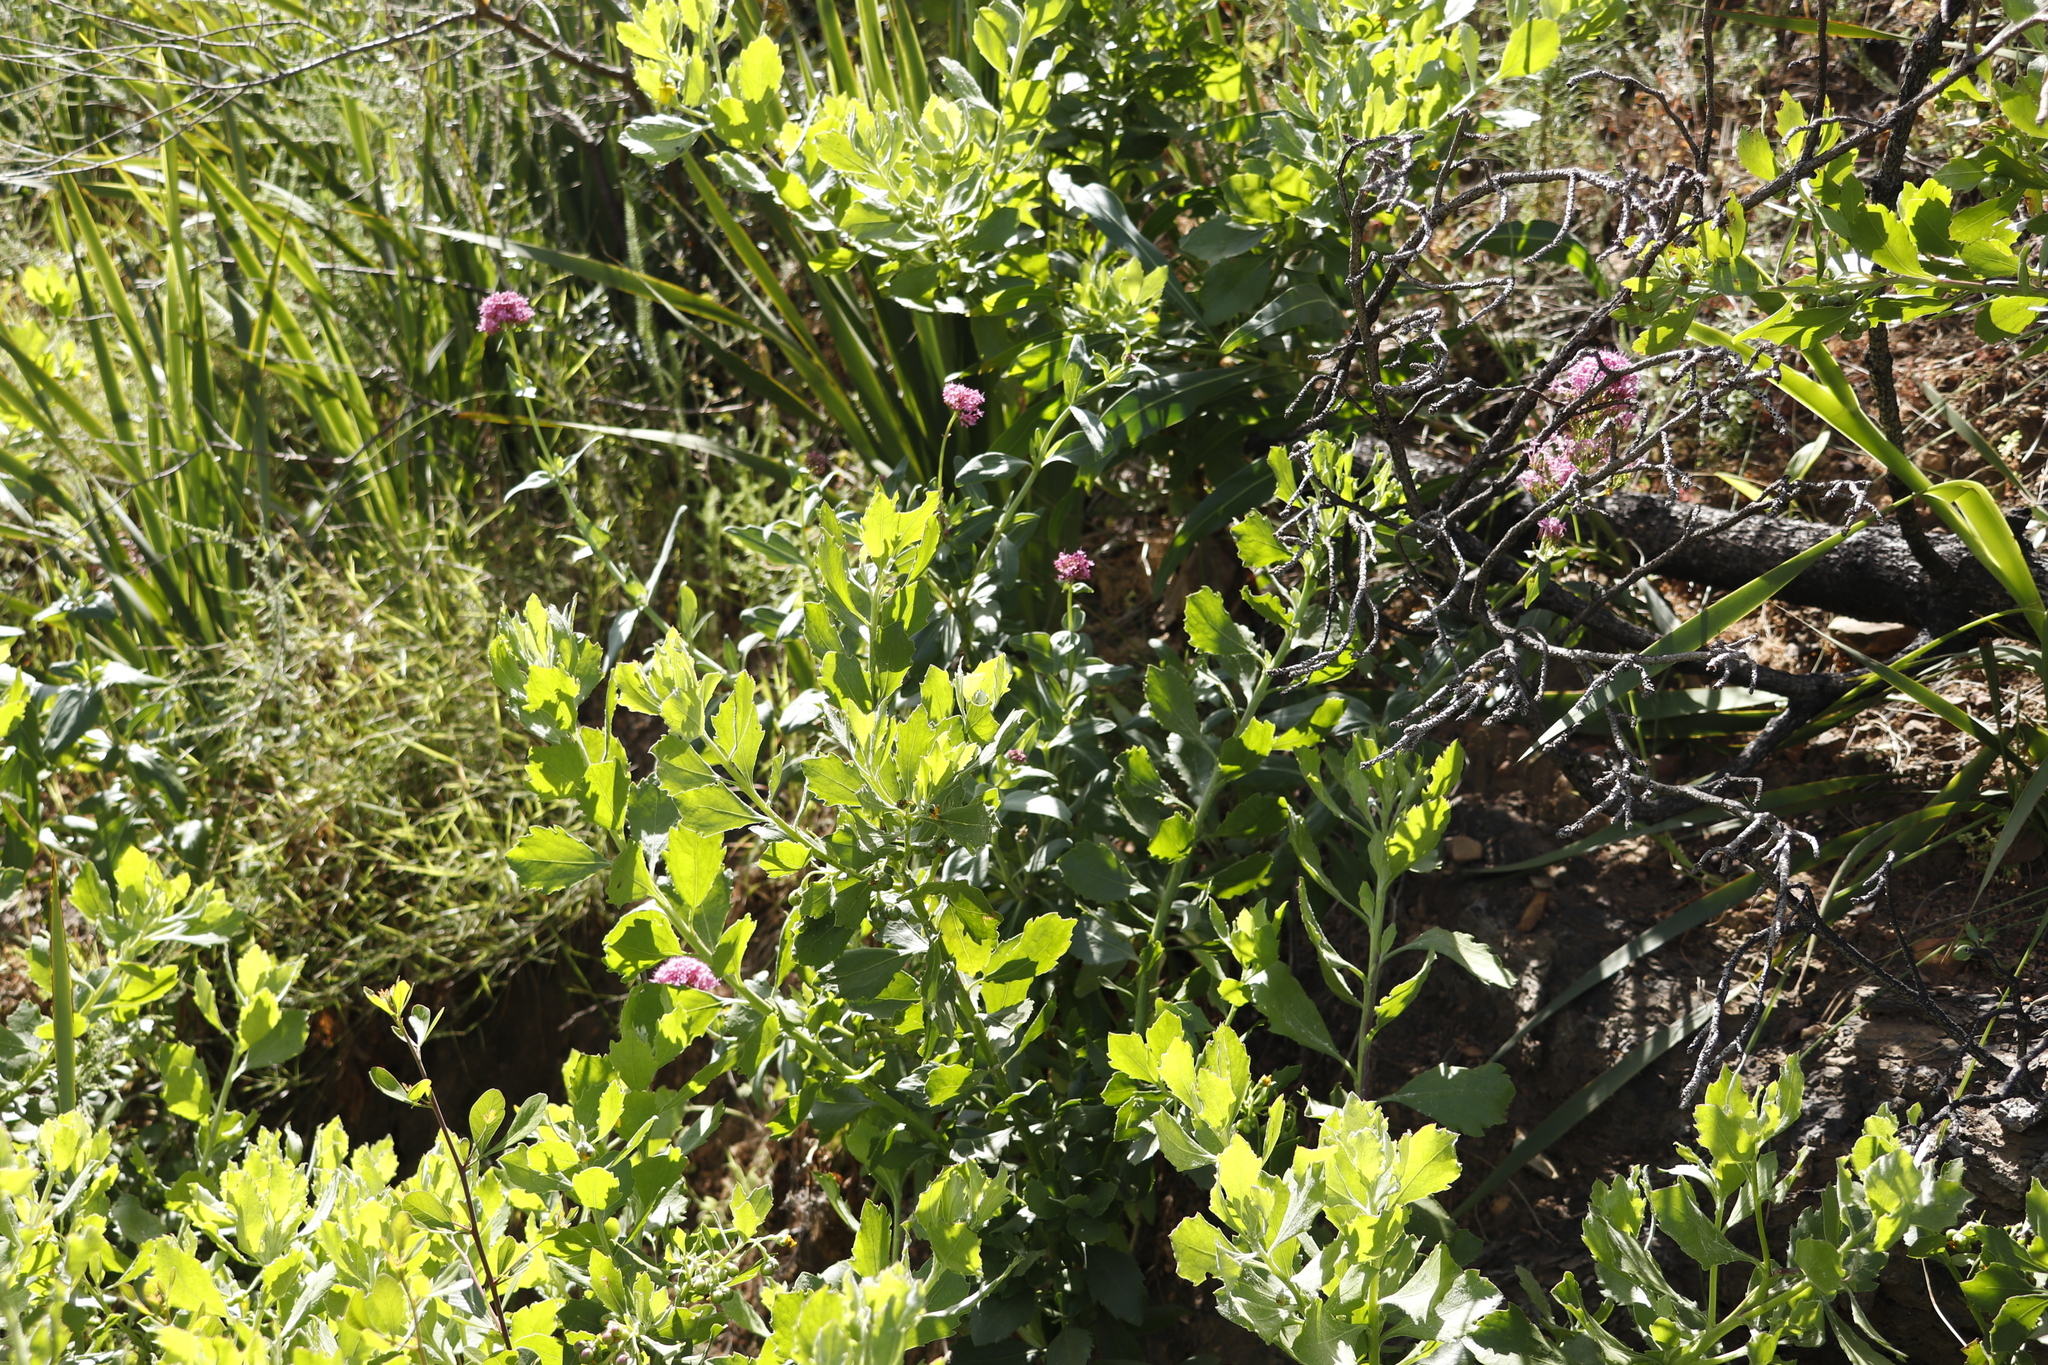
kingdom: Plantae
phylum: Tracheophyta
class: Magnoliopsida
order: Asterales
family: Asteraceae
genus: Osteospermum
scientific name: Osteospermum moniliferum
